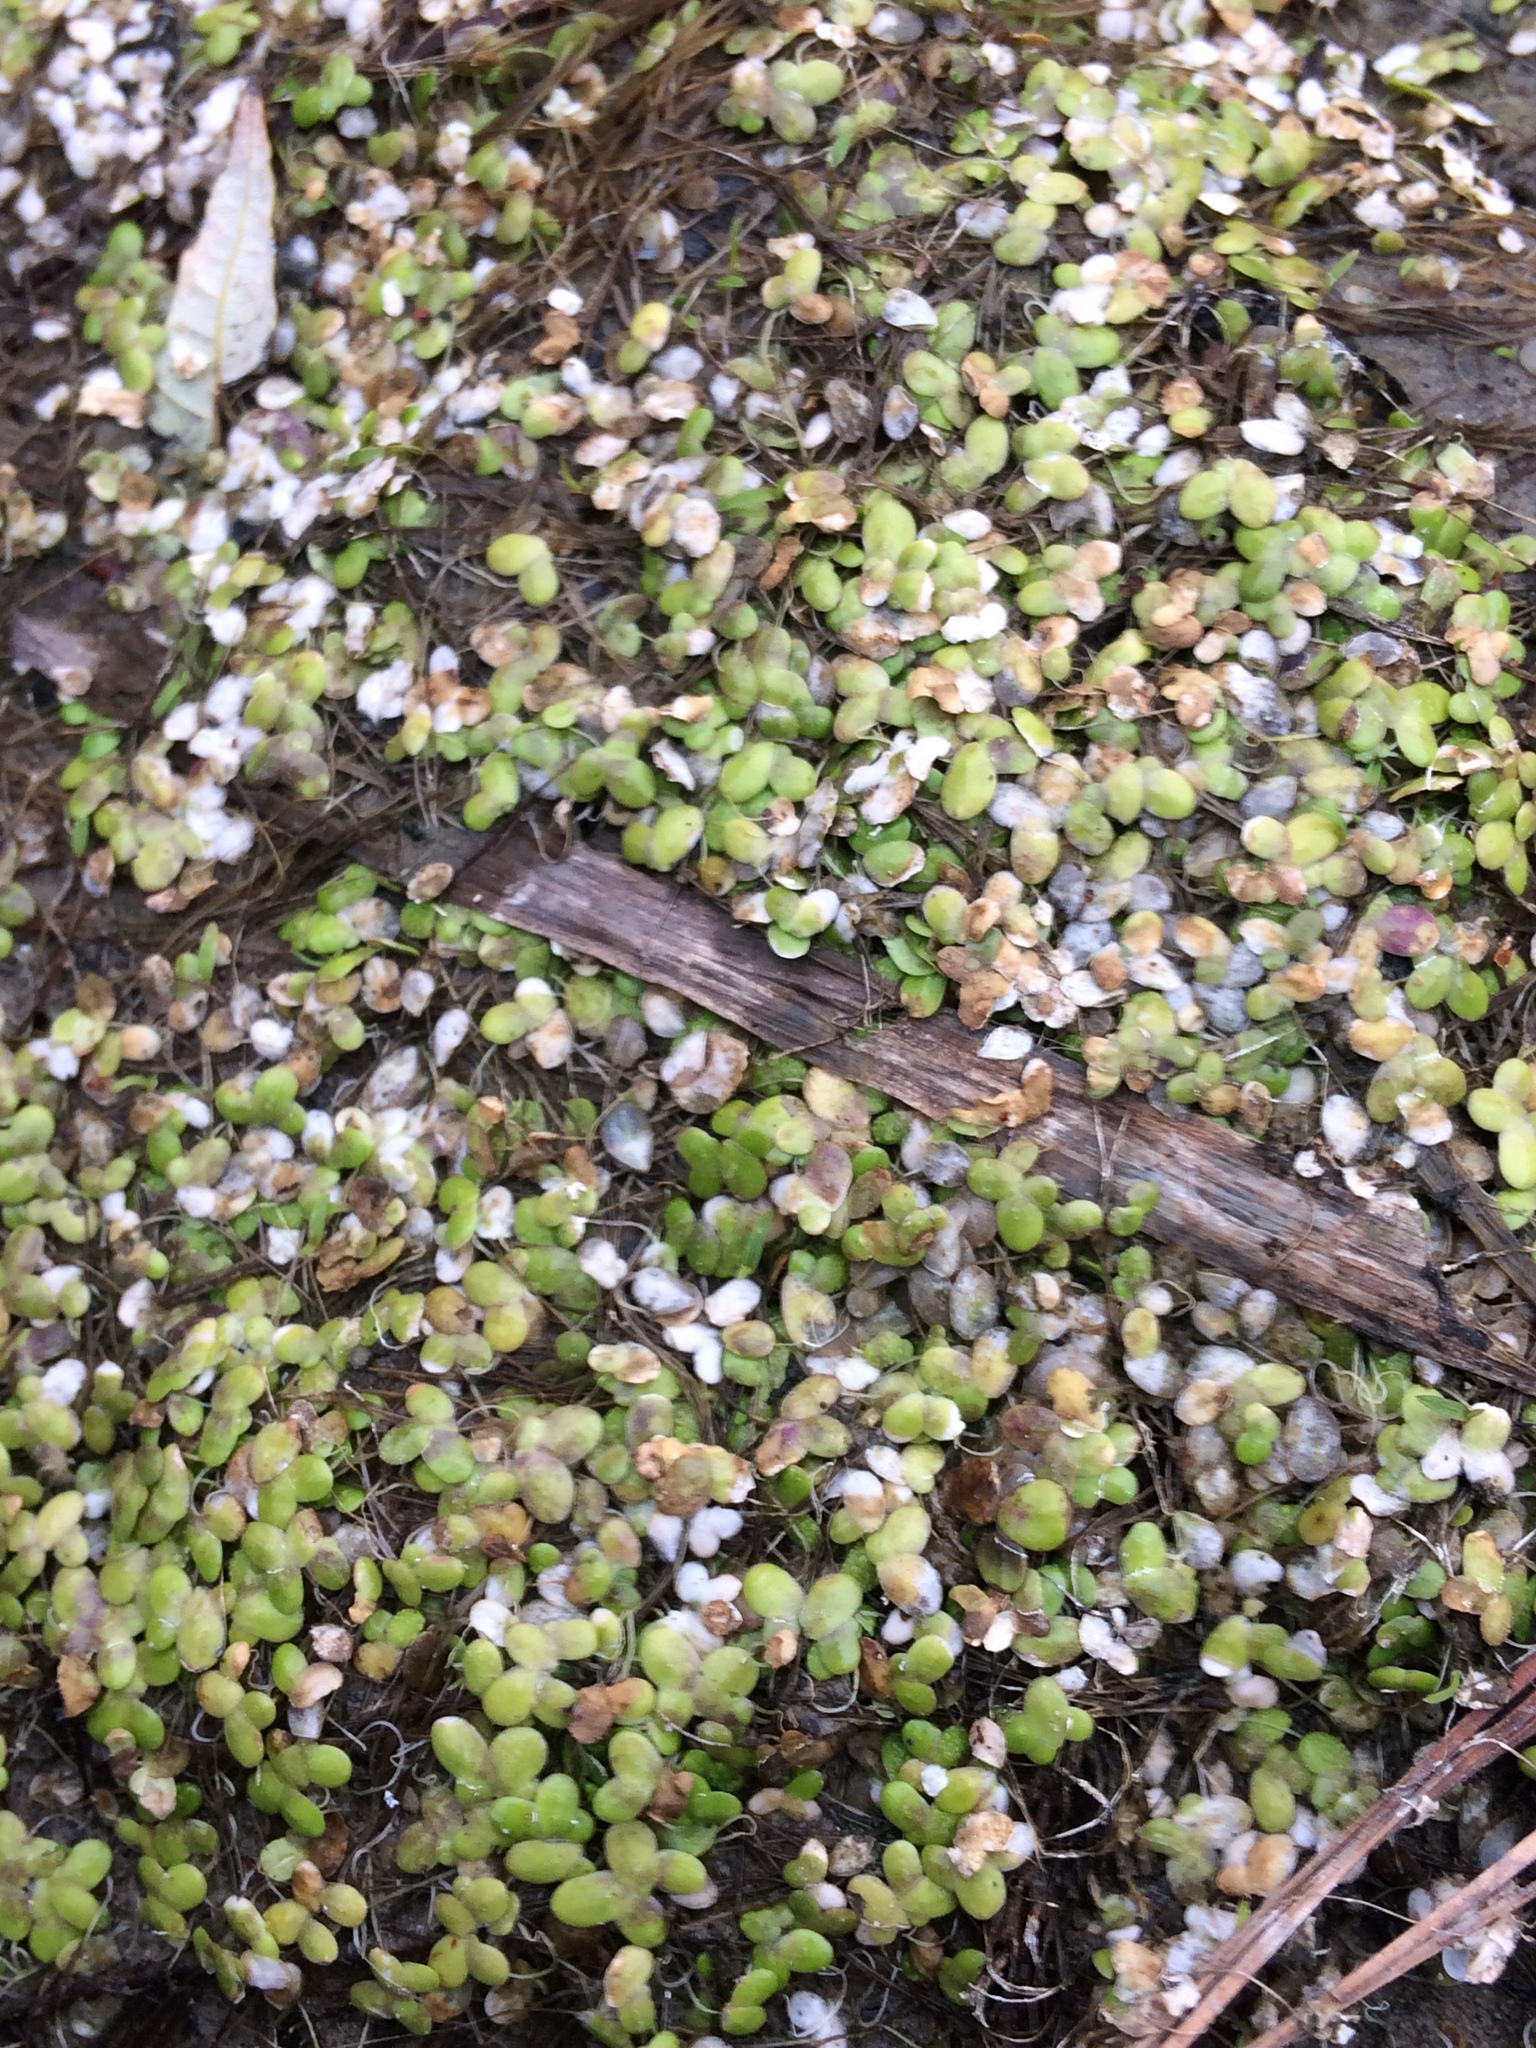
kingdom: Plantae
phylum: Tracheophyta
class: Liliopsida
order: Alismatales
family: Araceae
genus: Lemna
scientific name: Lemna minor
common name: Common duckweed
